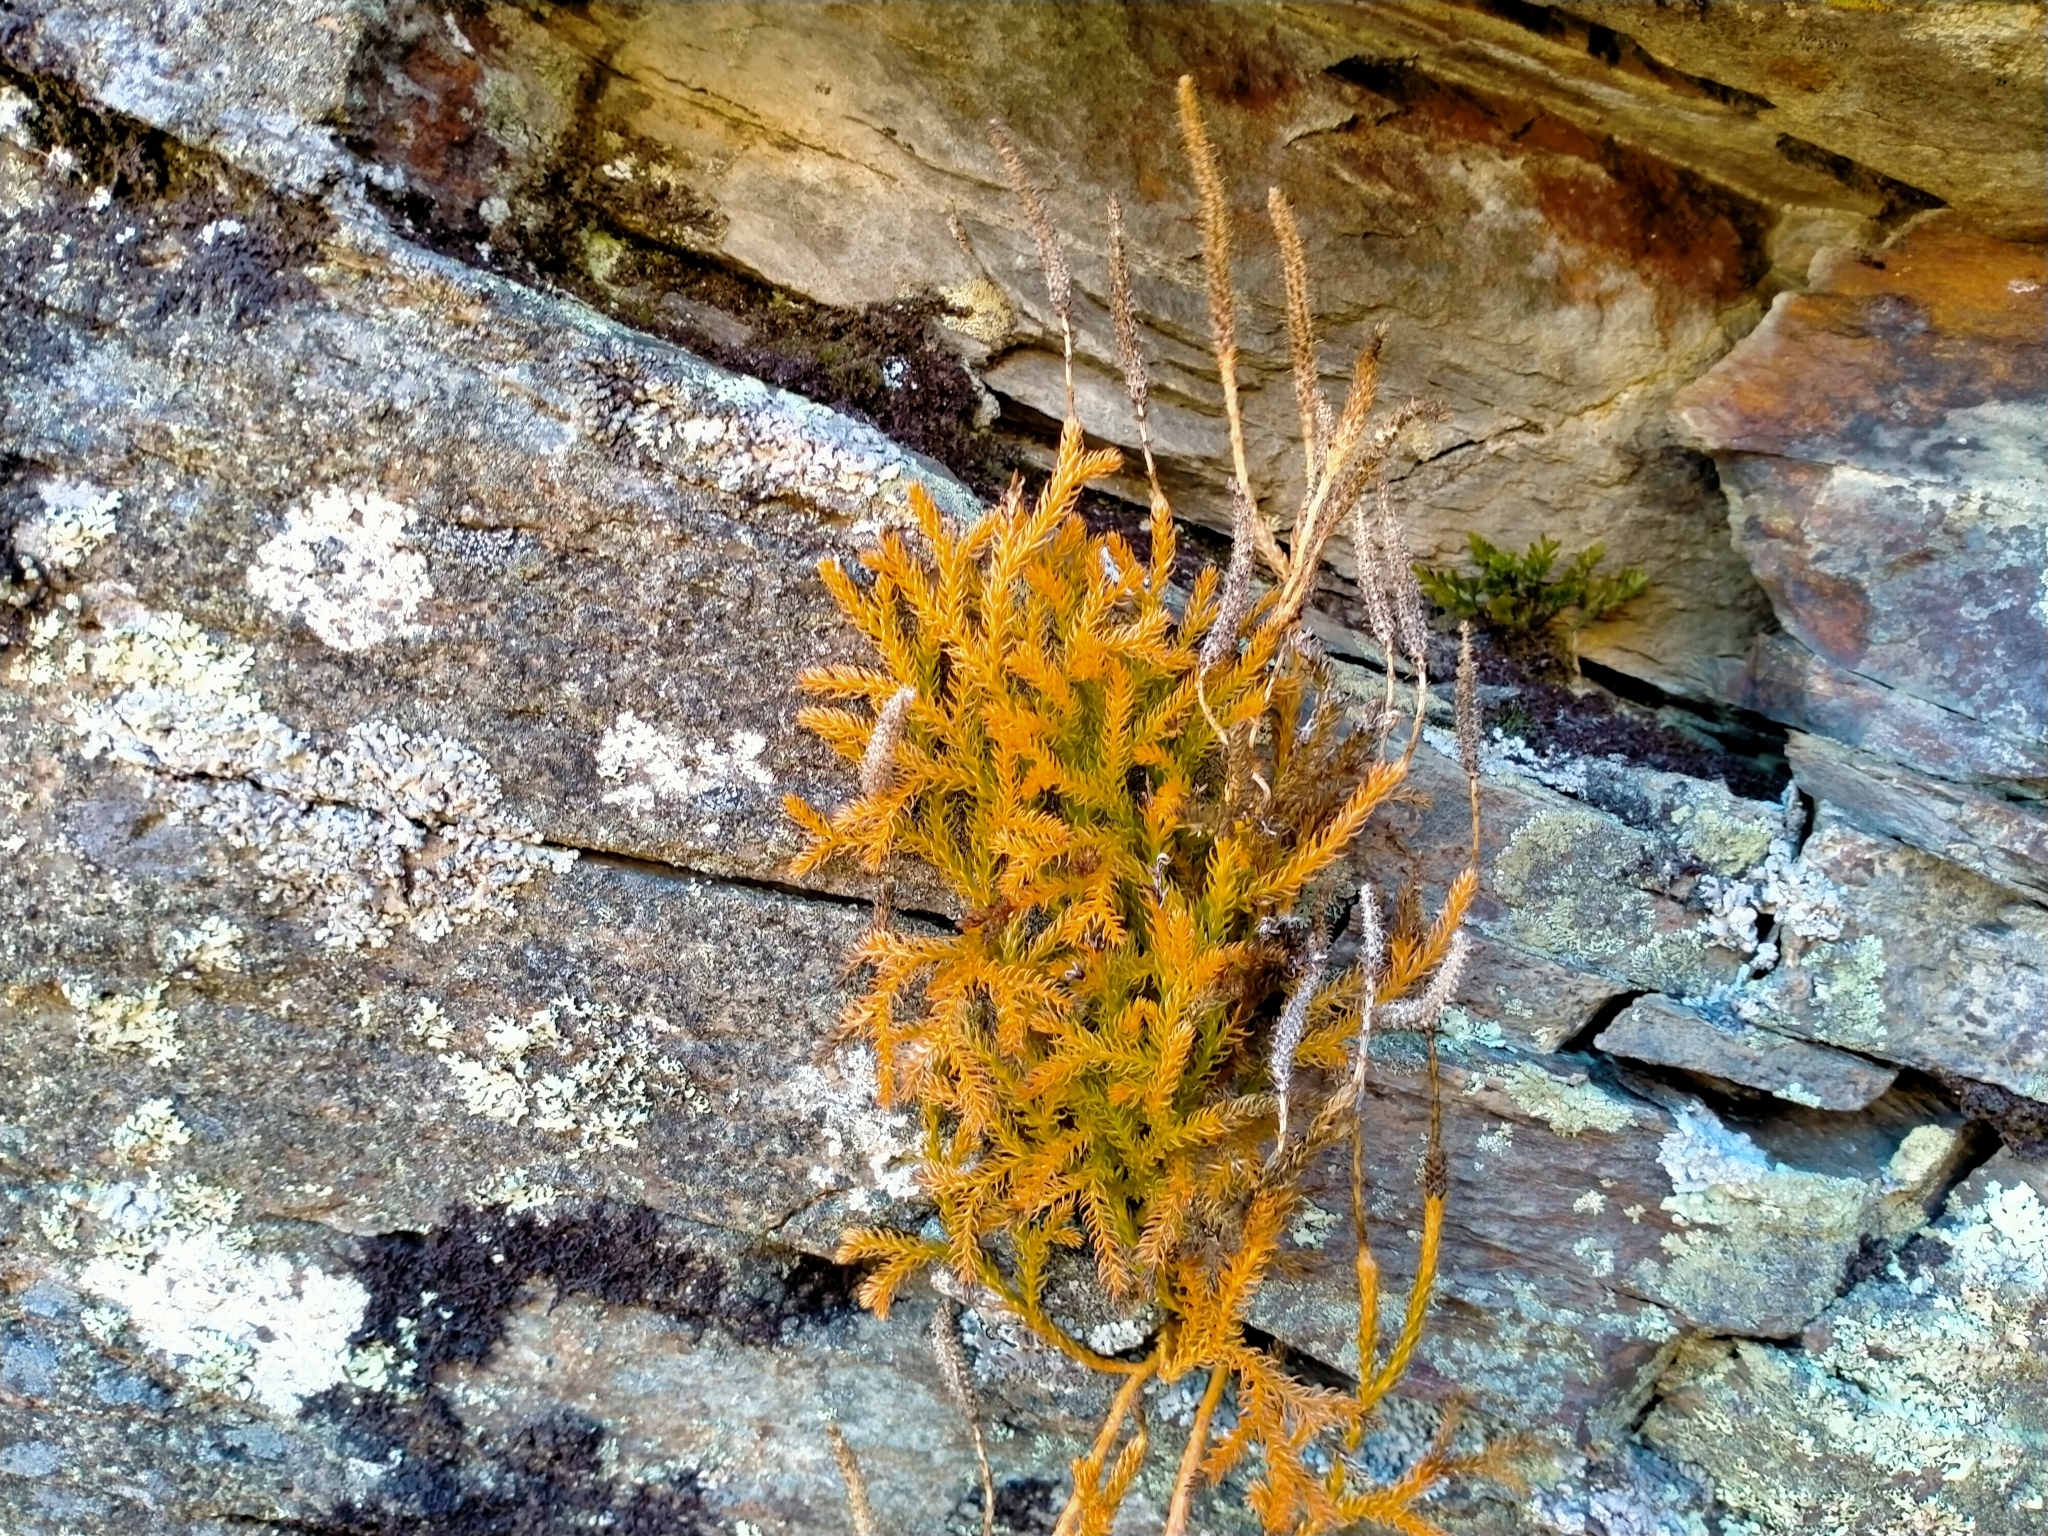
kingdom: Plantae
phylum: Tracheophyta
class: Lycopodiopsida
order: Lycopodiales
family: Lycopodiaceae
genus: Austrolycopodium
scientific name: Austrolycopodium fastigiatum
